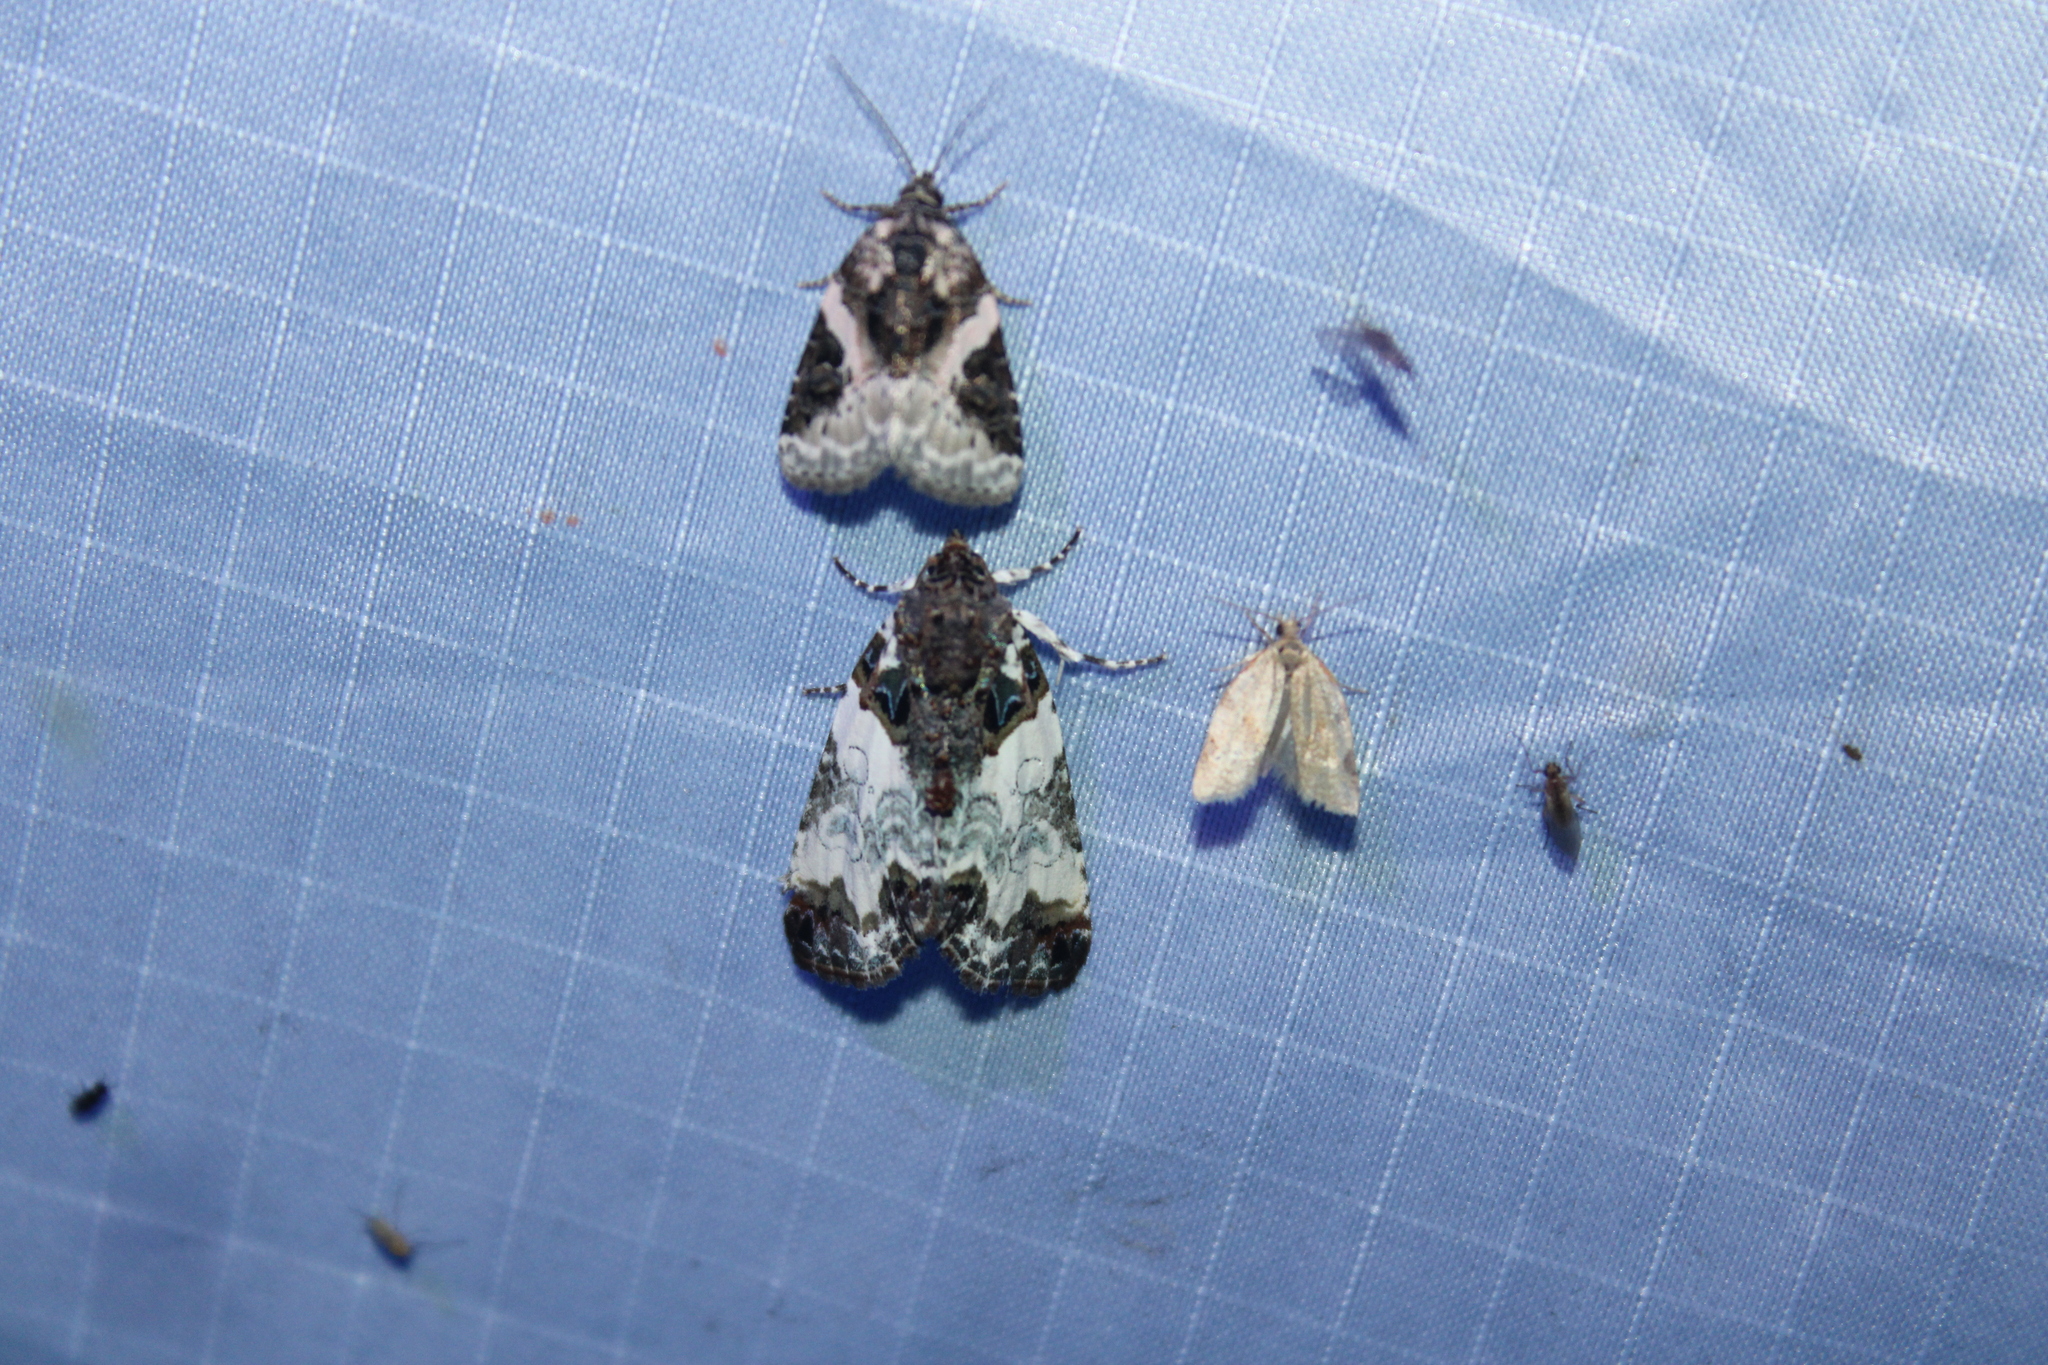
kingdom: Animalia
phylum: Arthropoda
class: Insecta
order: Lepidoptera
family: Noctuidae
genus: Cerma
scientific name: Cerma cerintha
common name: Tufted bird-dropping moth
